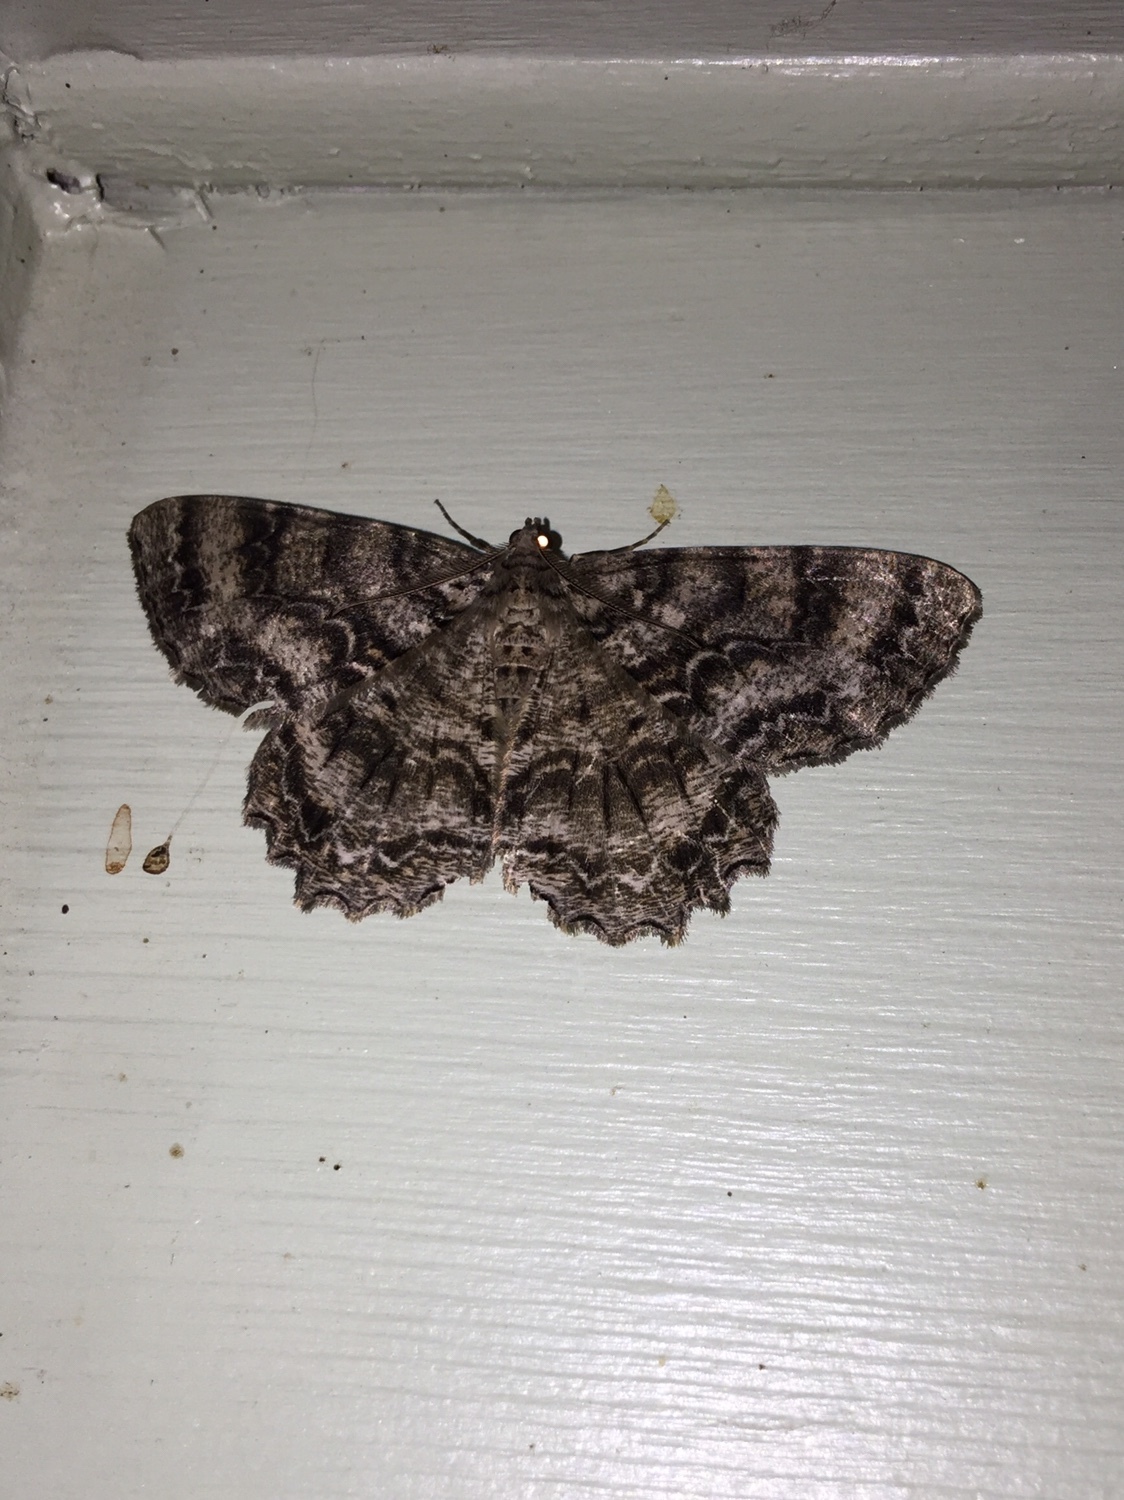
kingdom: Animalia
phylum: Arthropoda
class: Insecta
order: Lepidoptera
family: Geometridae
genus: Epimecis
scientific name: Epimecis hortaria
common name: Tulip-tree beauty
